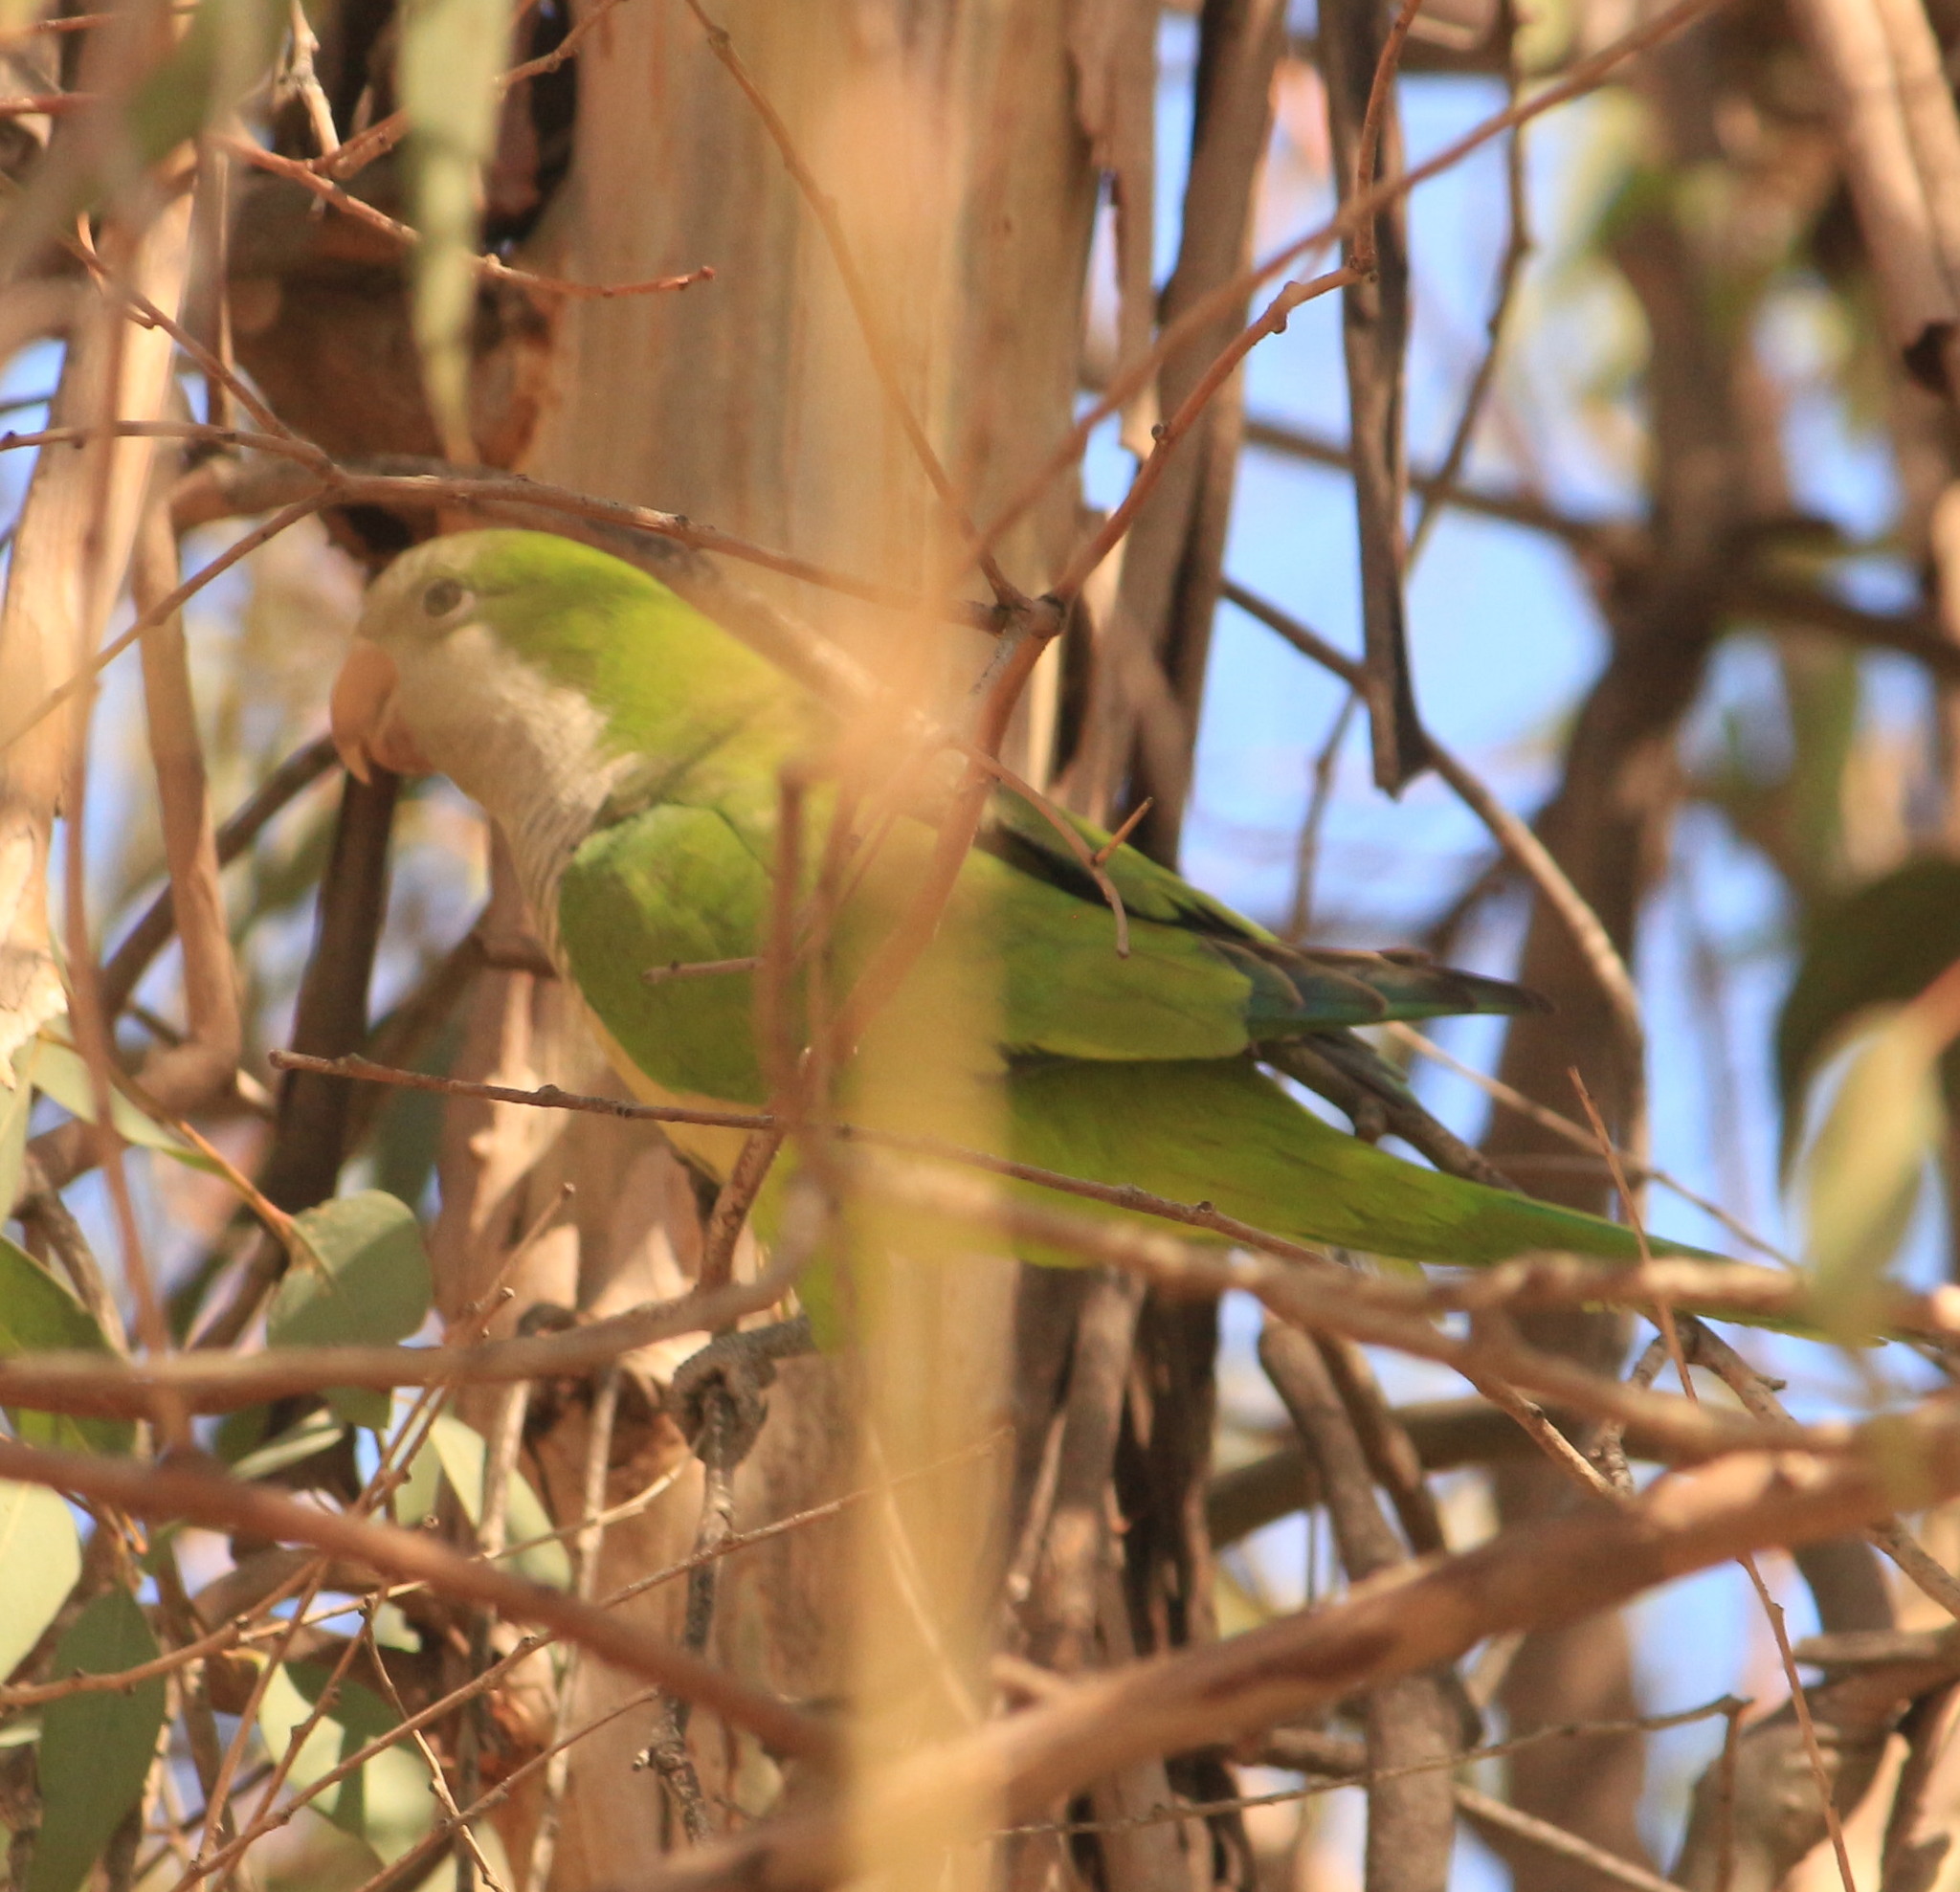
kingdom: Animalia
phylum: Chordata
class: Aves
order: Psittaciformes
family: Psittacidae
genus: Myiopsitta
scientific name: Myiopsitta monachus
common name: Monk parakeet
